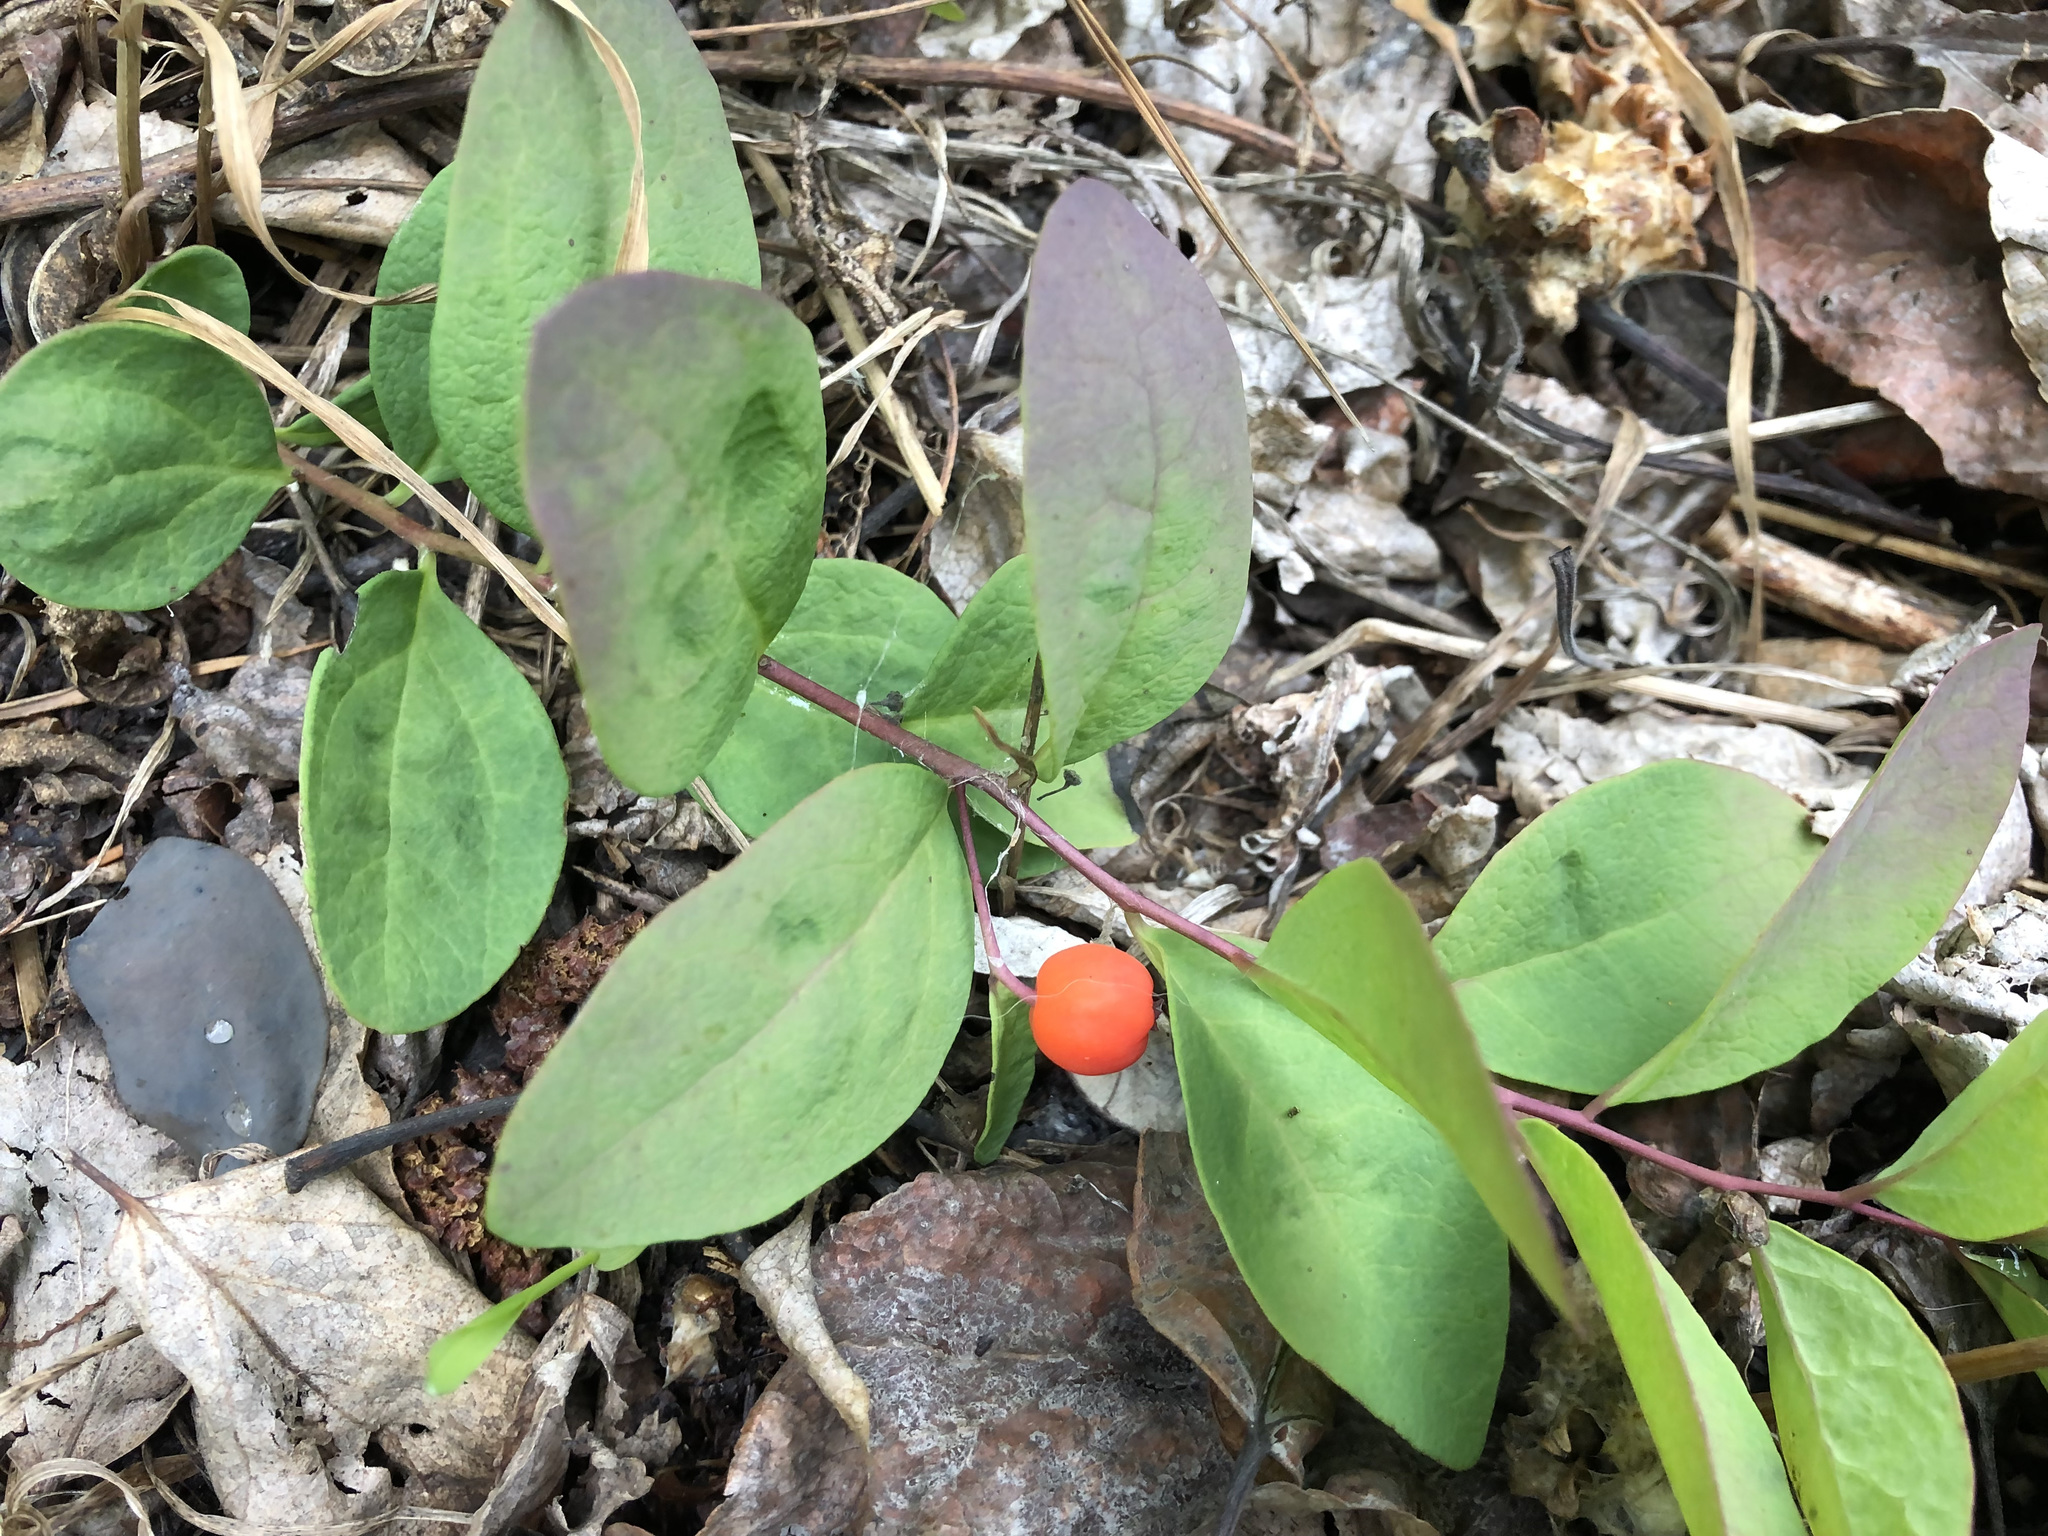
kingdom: Plantae
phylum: Tracheophyta
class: Magnoliopsida
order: Santalales
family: Comandraceae
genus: Geocaulon
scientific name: Geocaulon lividum
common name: Earthberry
